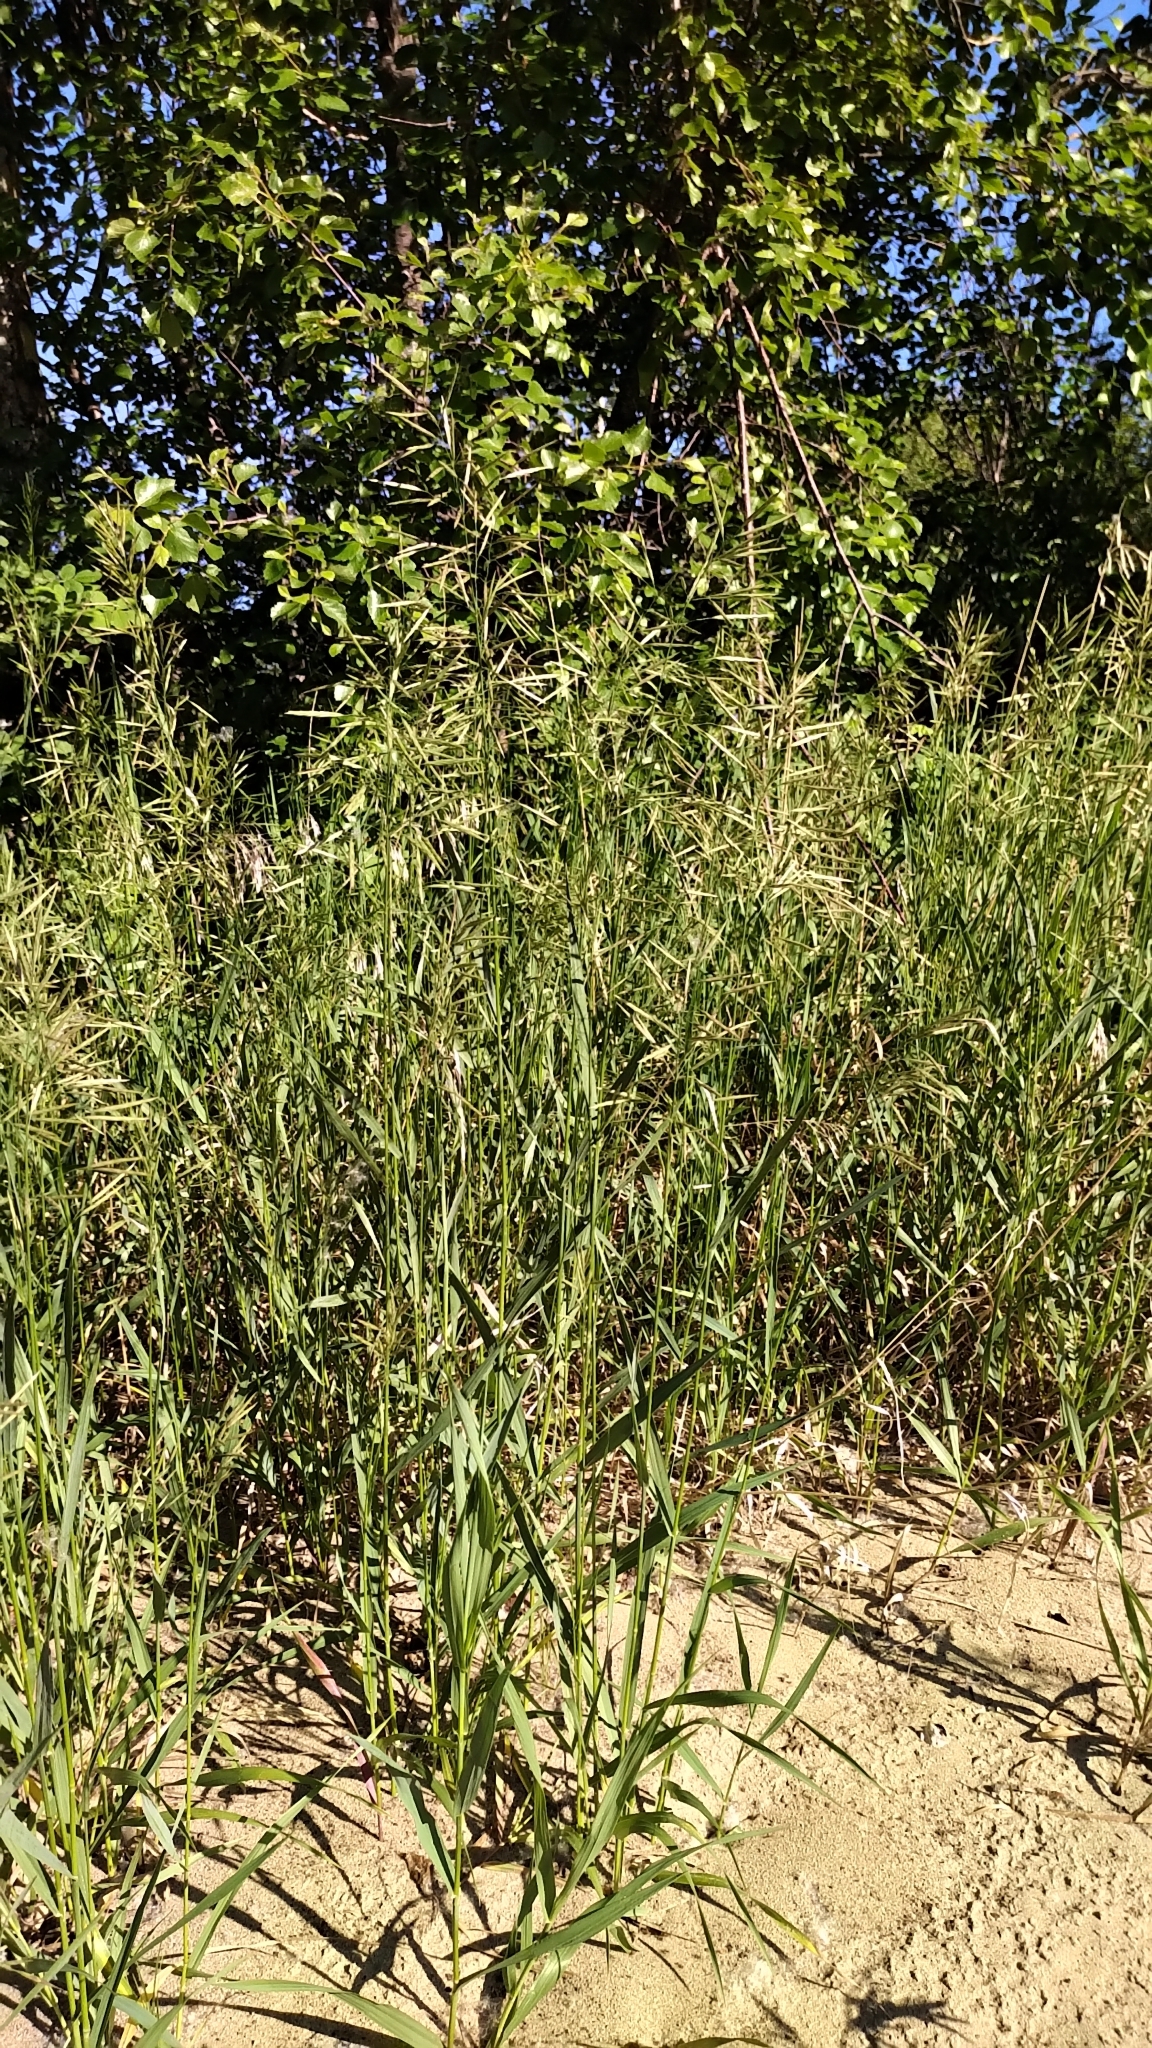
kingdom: Plantae
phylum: Tracheophyta
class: Liliopsida
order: Poales
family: Poaceae
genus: Bromus
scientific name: Bromus inermis
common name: Smooth brome
